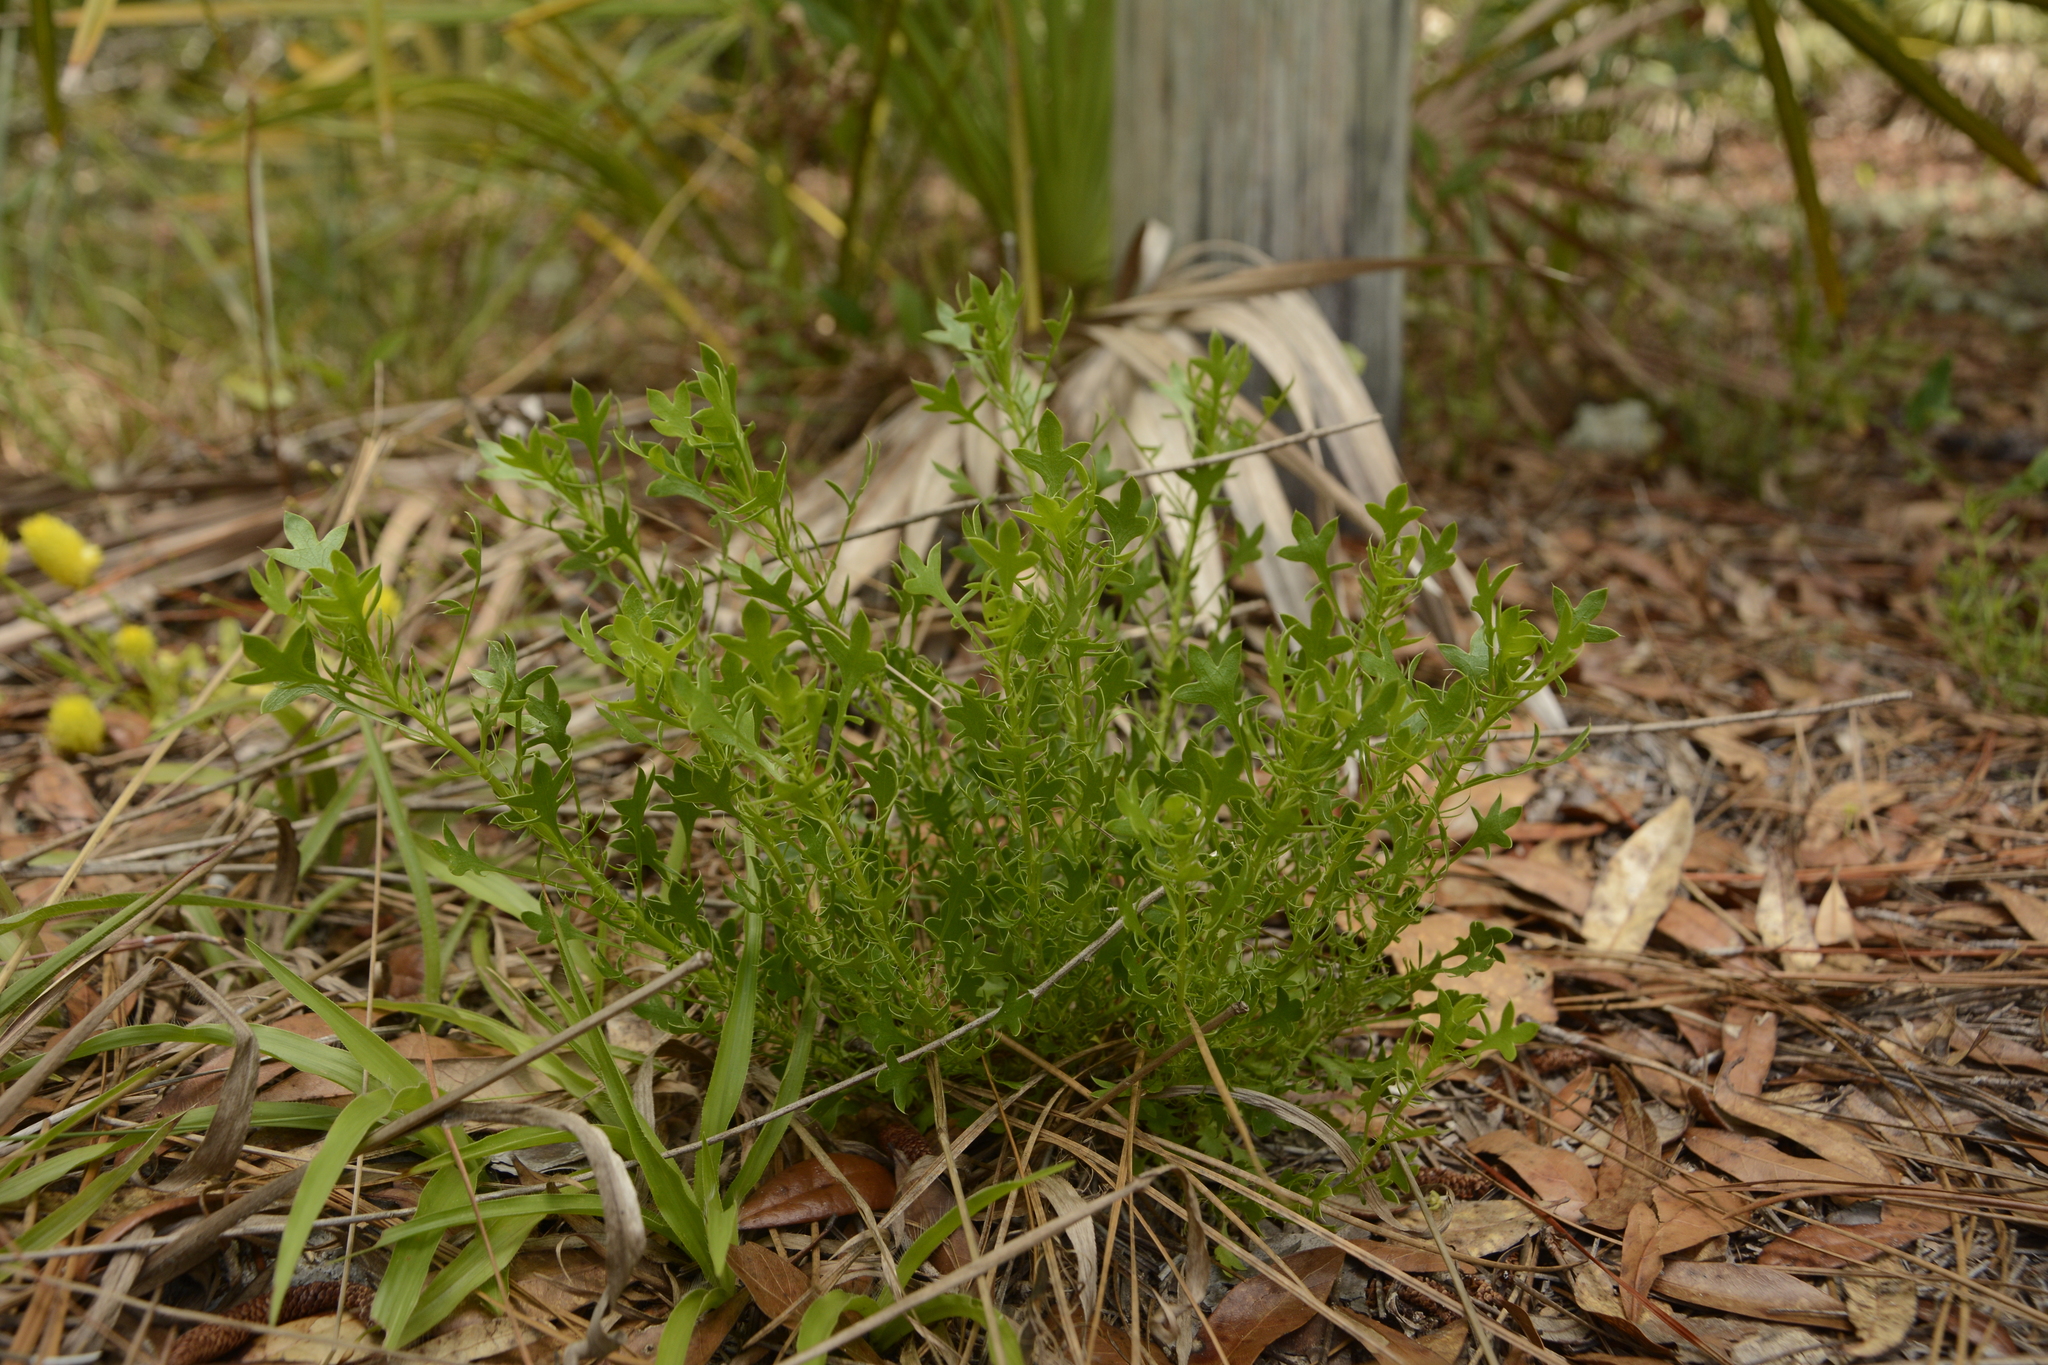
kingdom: Plantae
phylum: Tracheophyta
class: Magnoliopsida
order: Apiales
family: Apiaceae
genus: Eryngium
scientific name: Eryngium aromaticum
